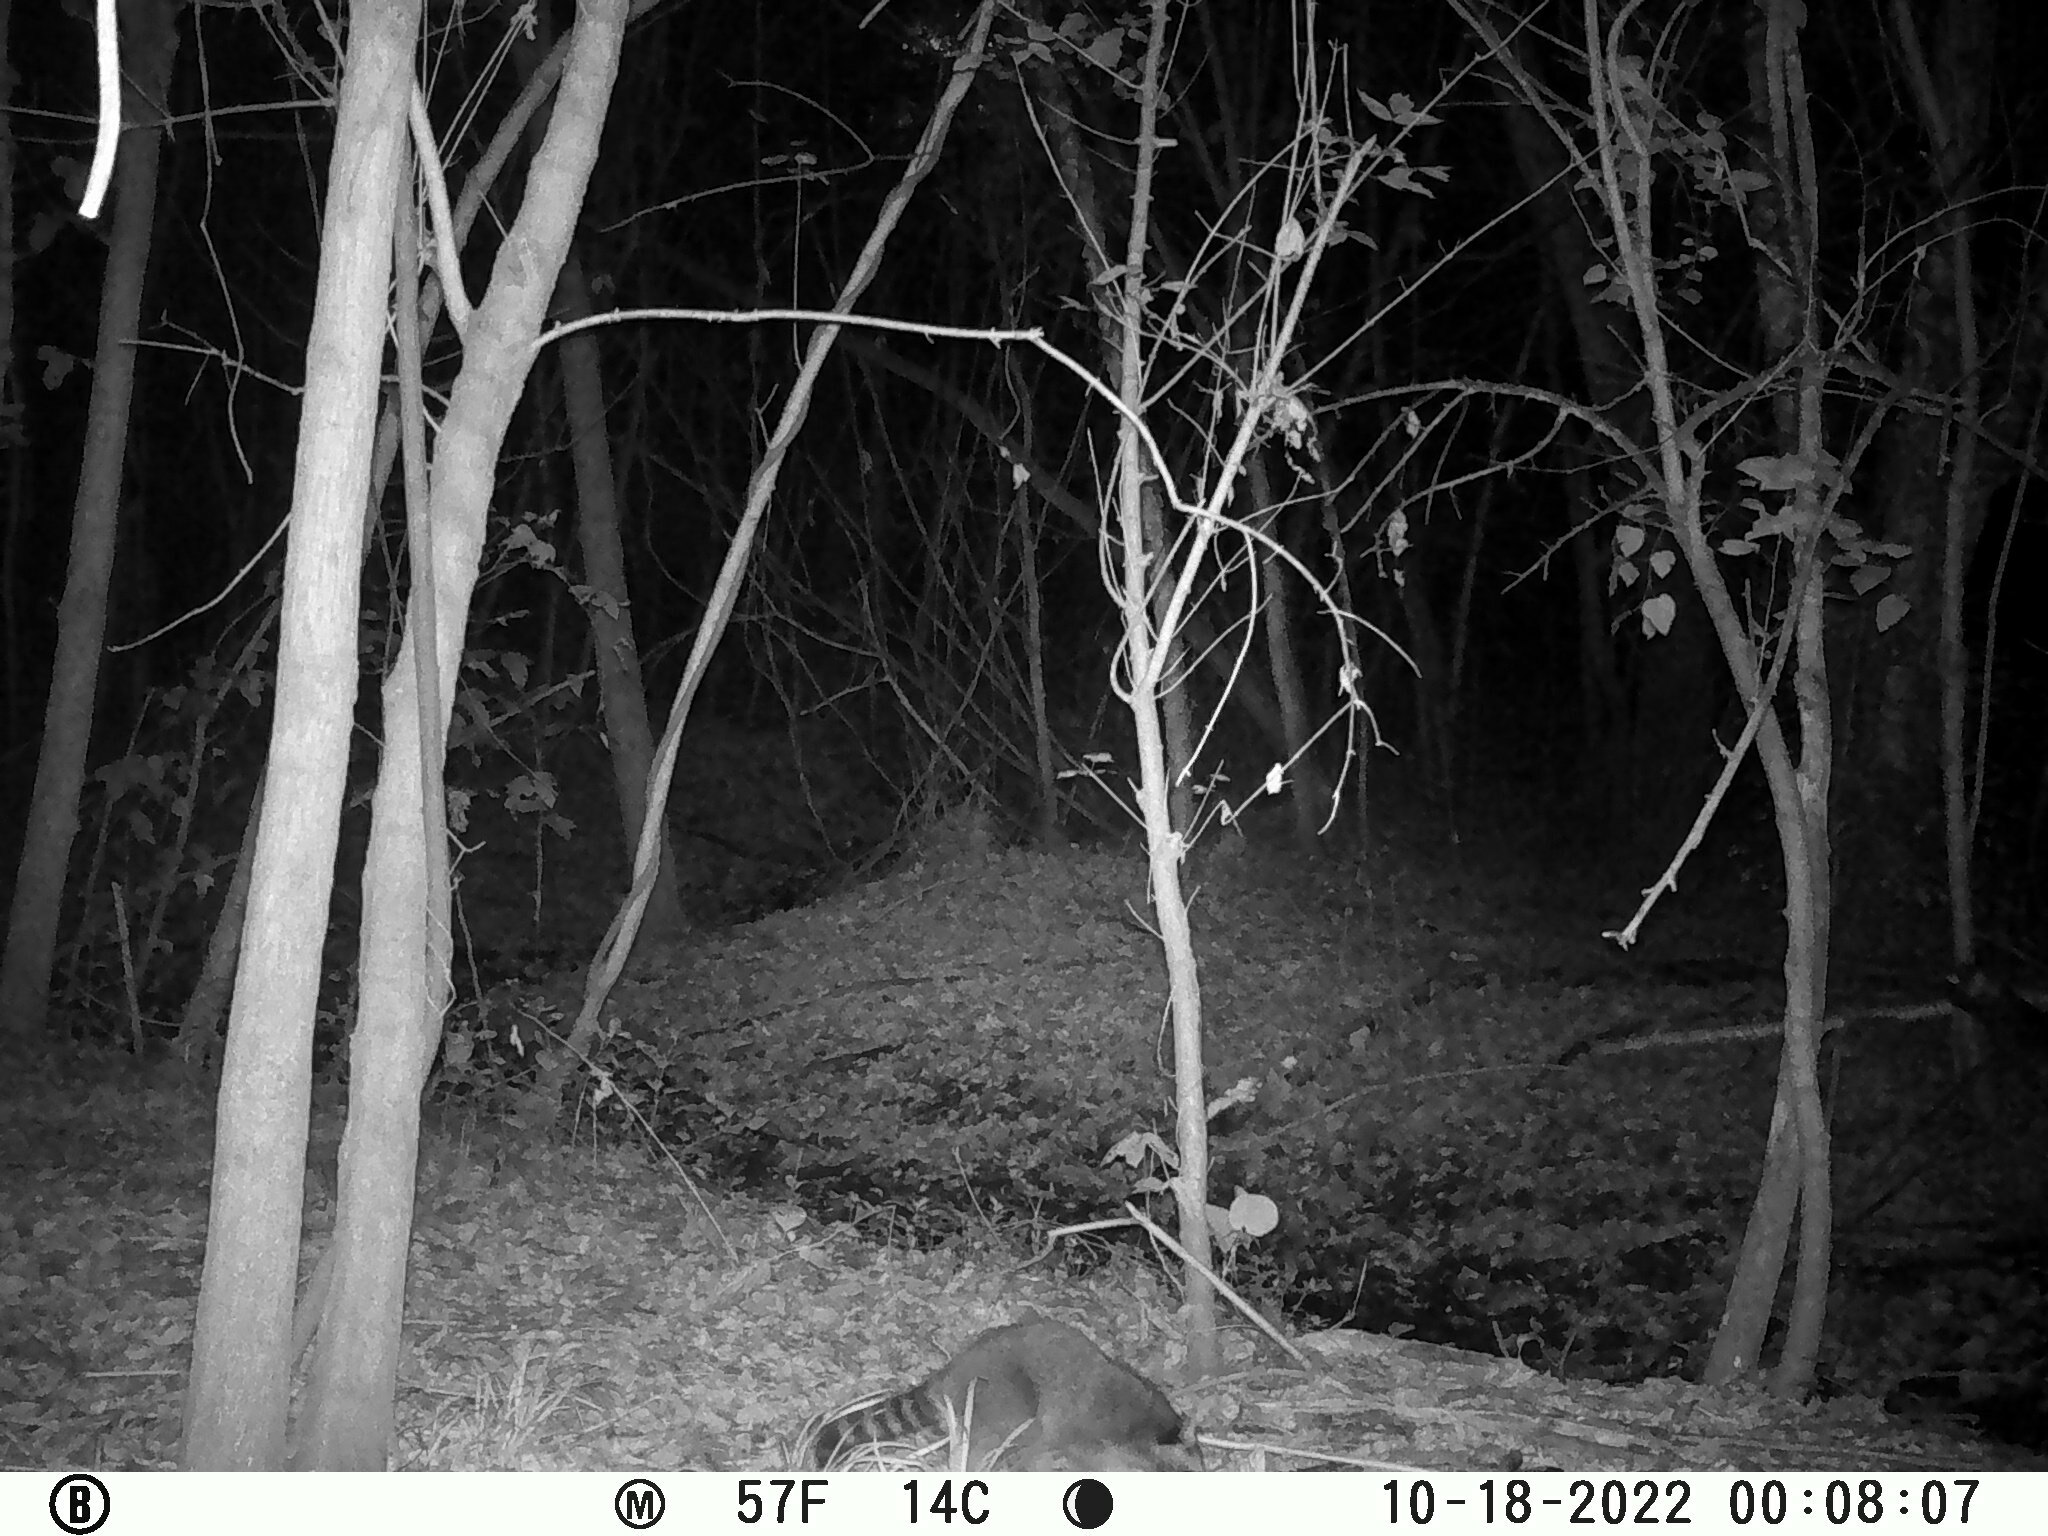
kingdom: Animalia
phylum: Chordata
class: Mammalia
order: Carnivora
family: Procyonidae
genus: Procyon
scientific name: Procyon lotor
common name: Raccoon
